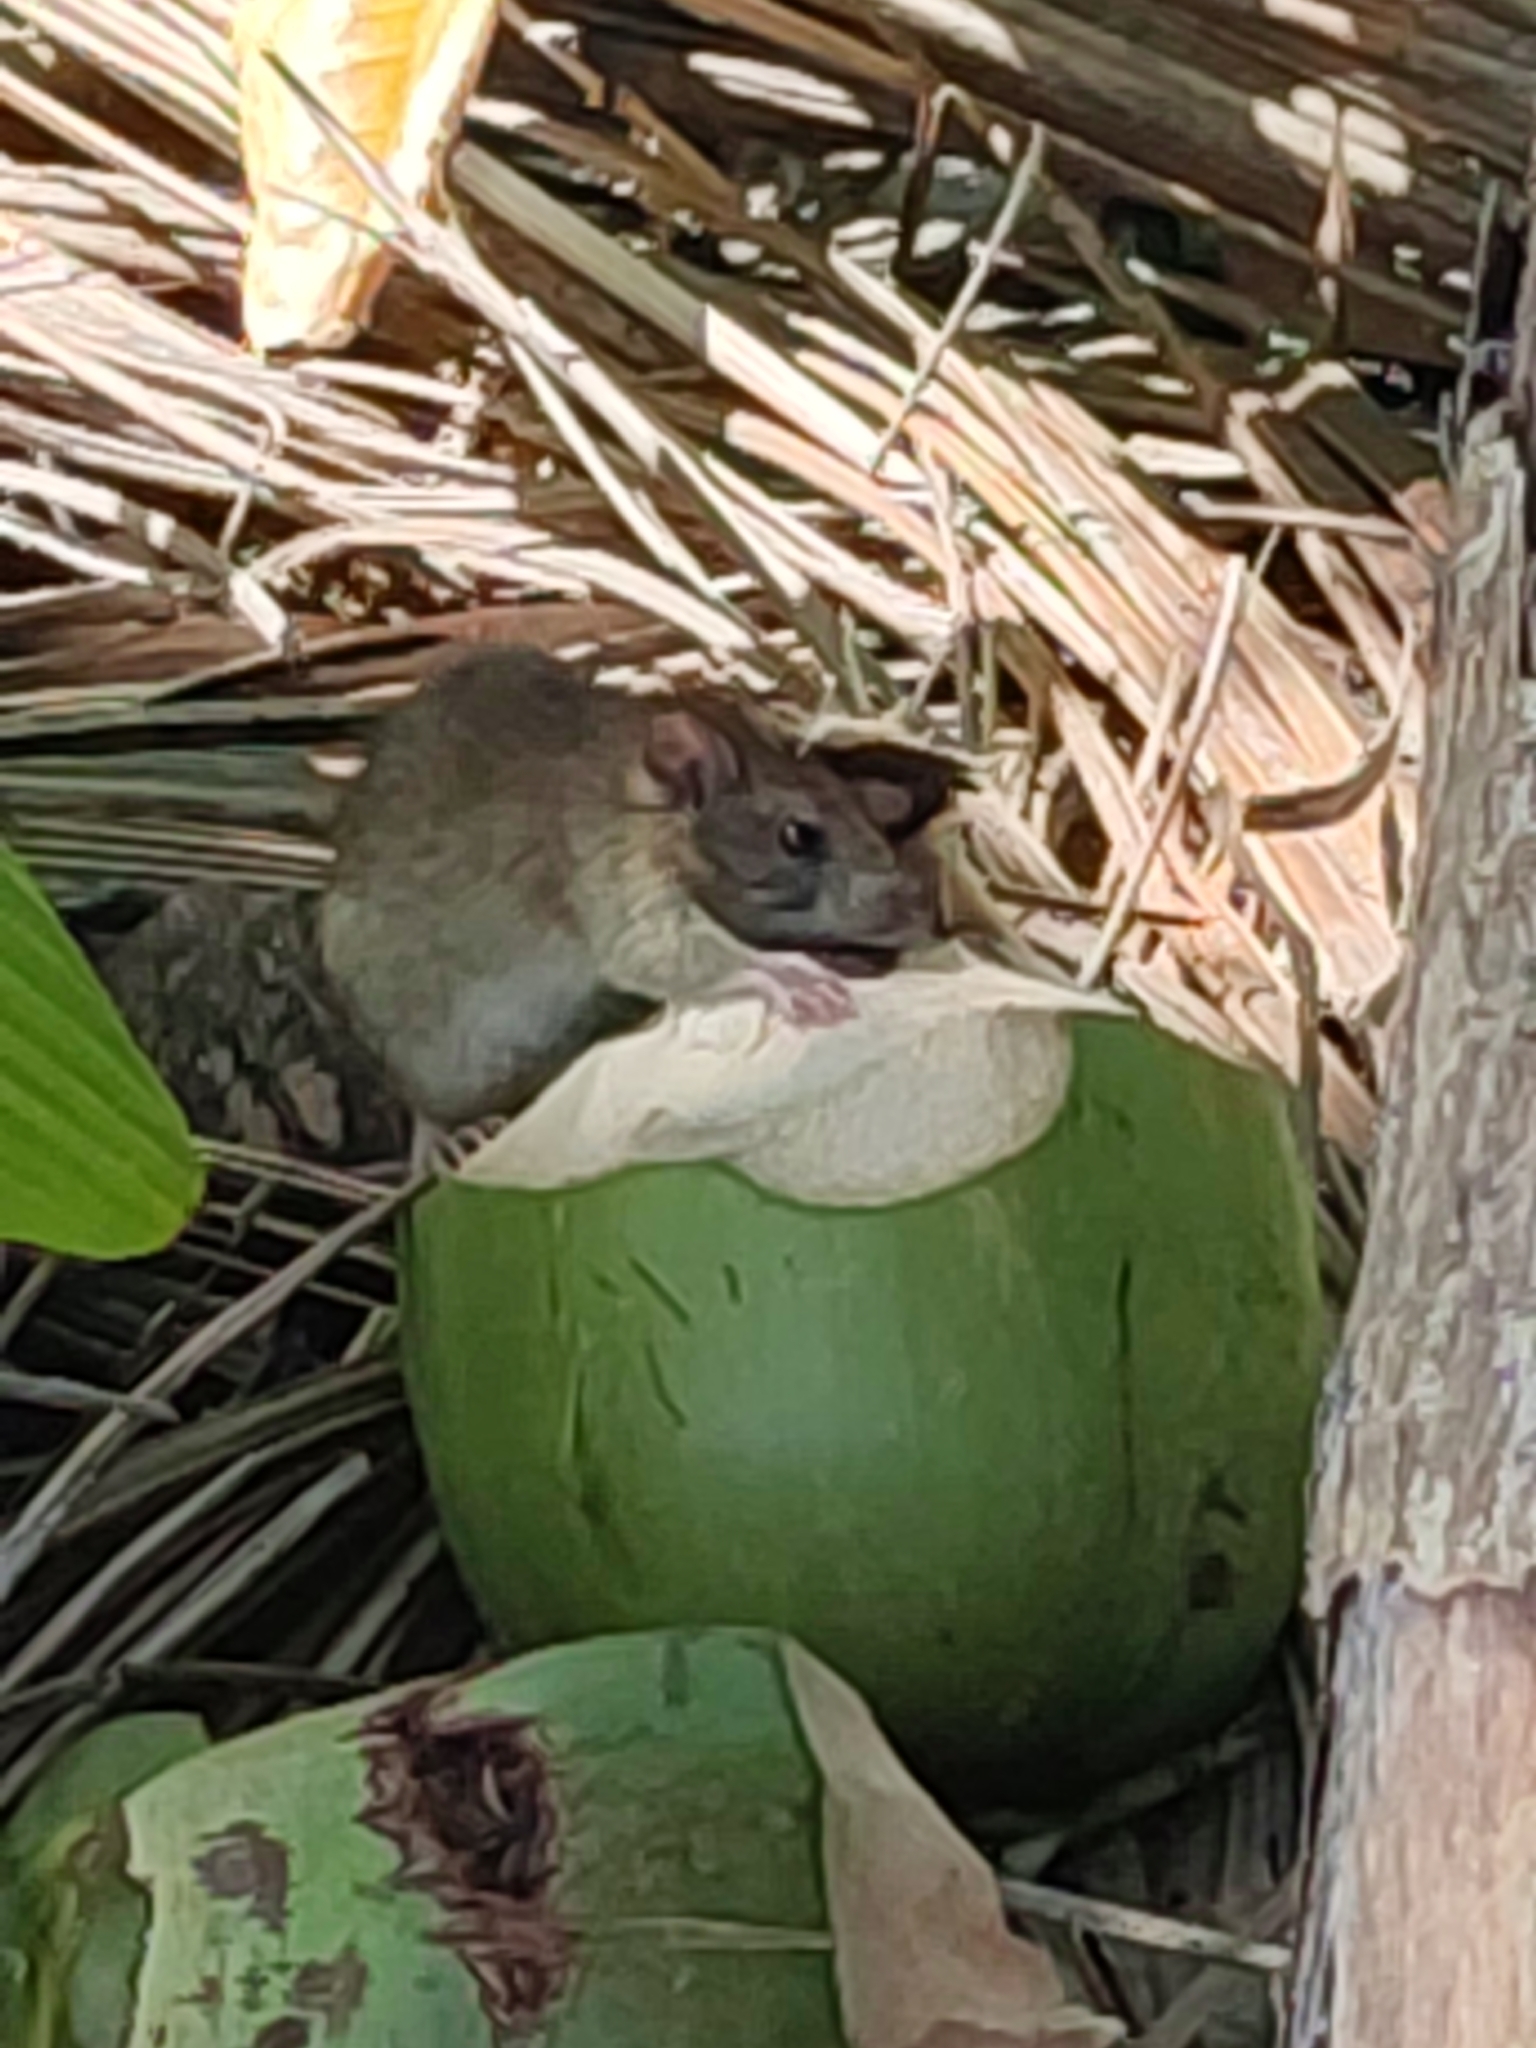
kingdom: Animalia
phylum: Chordata
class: Mammalia
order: Rodentia
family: Muridae
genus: Rattus
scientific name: Rattus rattus
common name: Black rat
